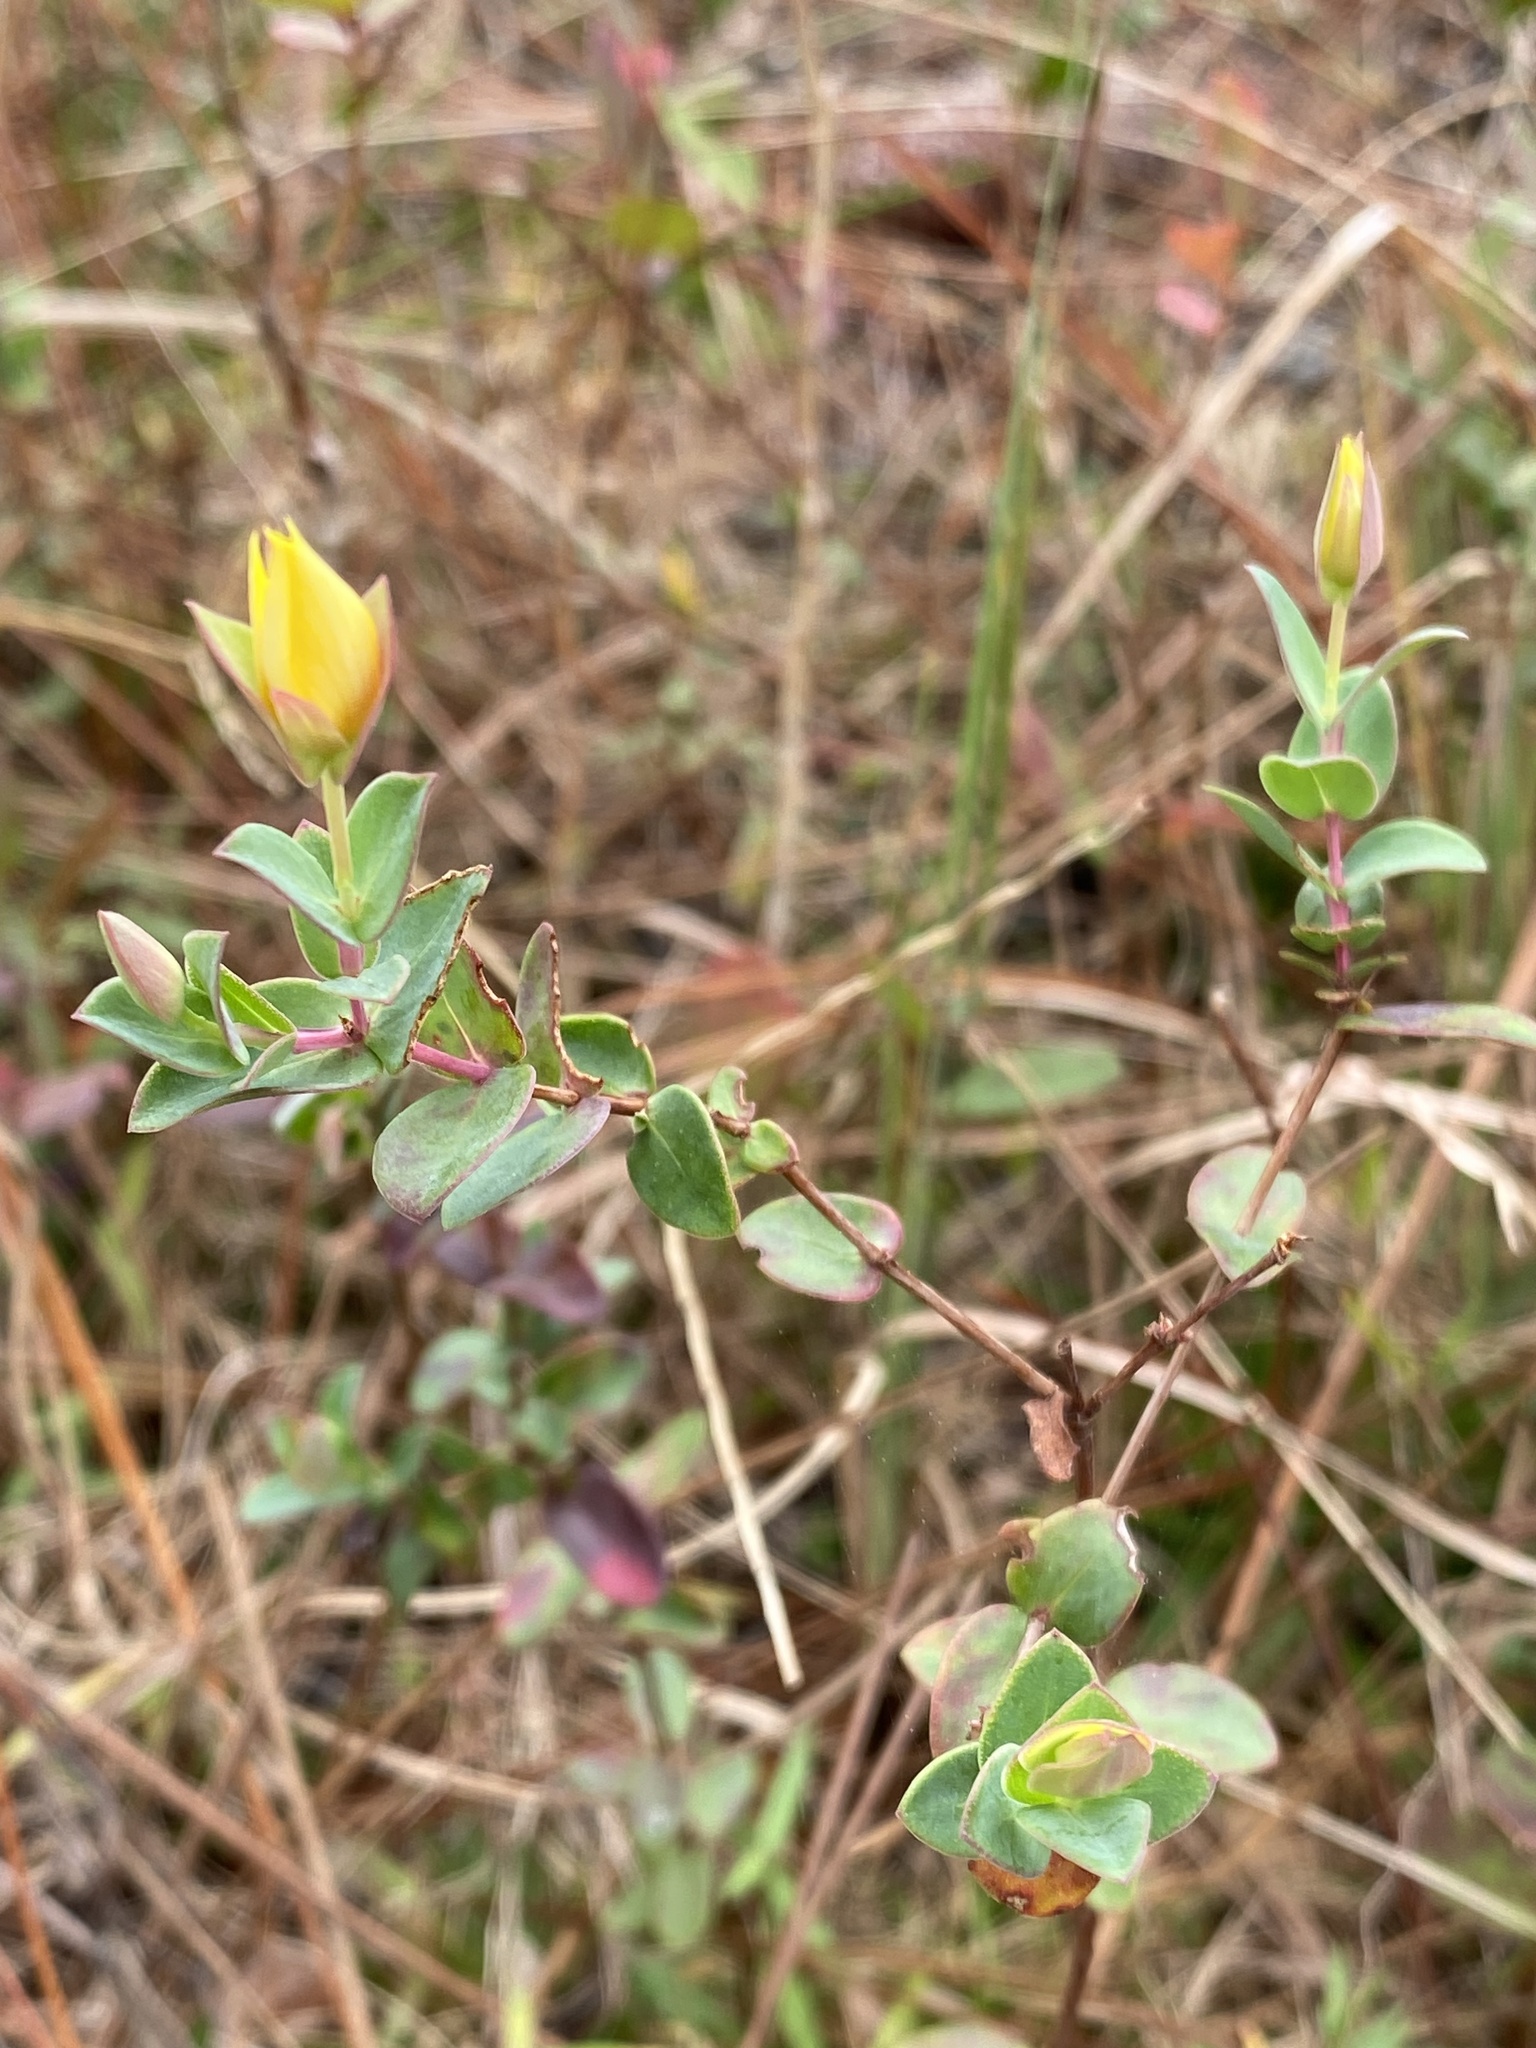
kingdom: Plantae
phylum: Tracheophyta
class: Magnoliopsida
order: Malpighiales
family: Hypericaceae
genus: Hypericum
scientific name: Hypericum tetrapetalum
